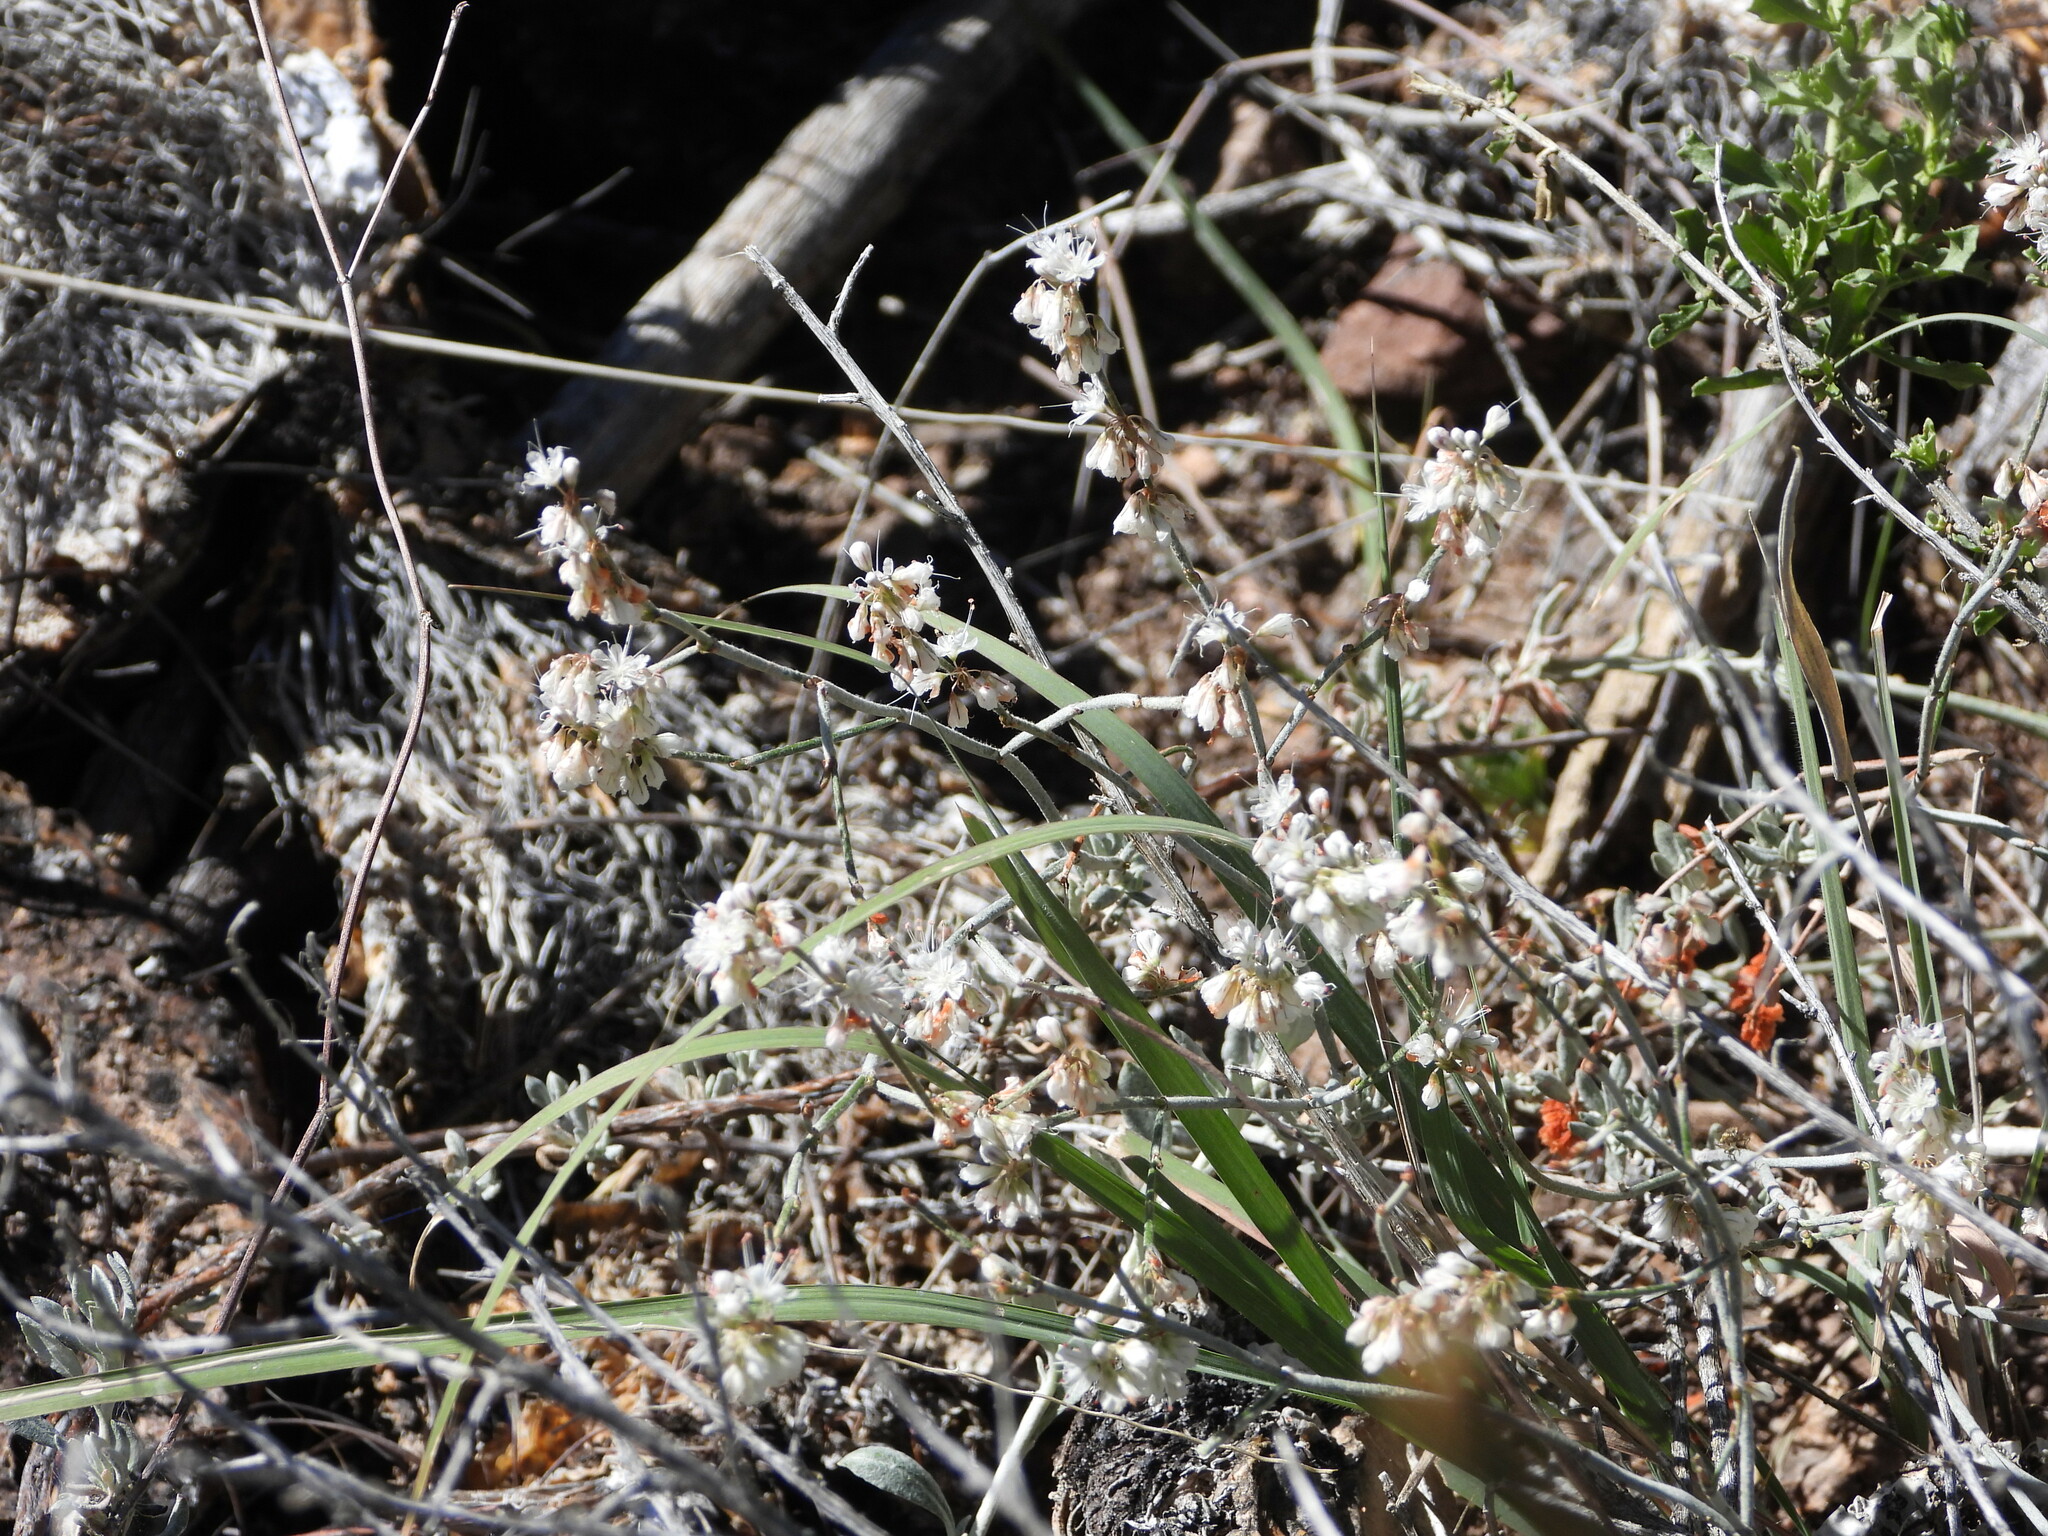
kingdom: Plantae
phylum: Tracheophyta
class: Magnoliopsida
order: Caryophyllales
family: Polygonaceae
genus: Eriogonum
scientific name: Eriogonum wrightii
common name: Bastard-sage
